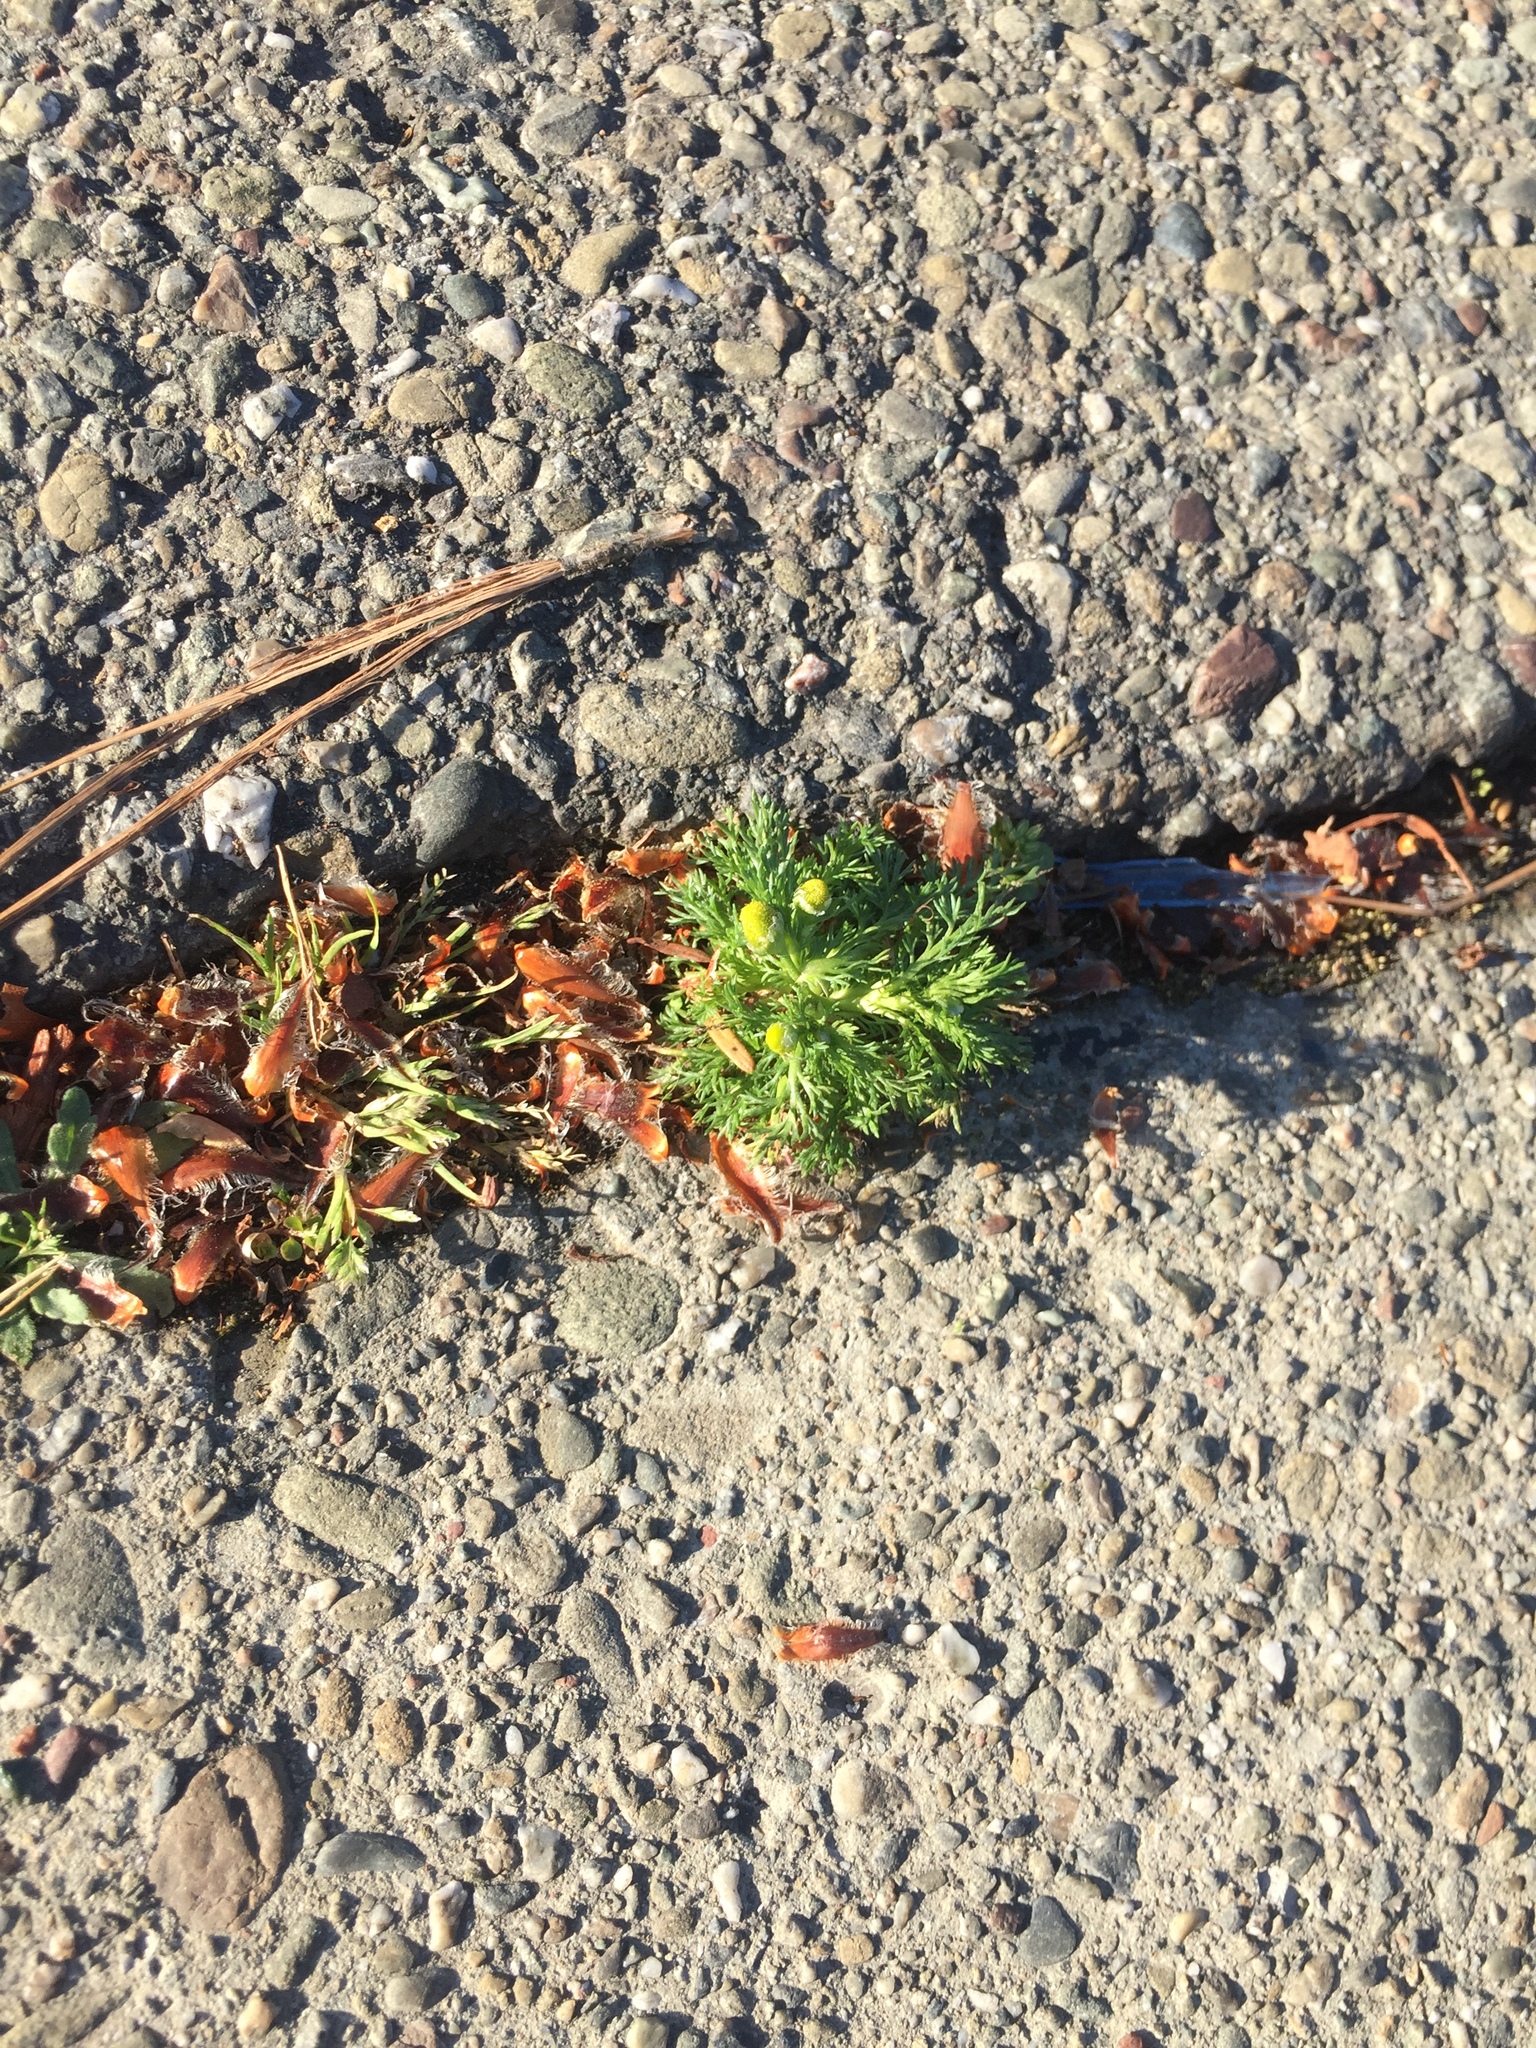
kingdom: Plantae
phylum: Tracheophyta
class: Magnoliopsida
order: Asterales
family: Asteraceae
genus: Matricaria
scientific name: Matricaria discoidea
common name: Disc mayweed
